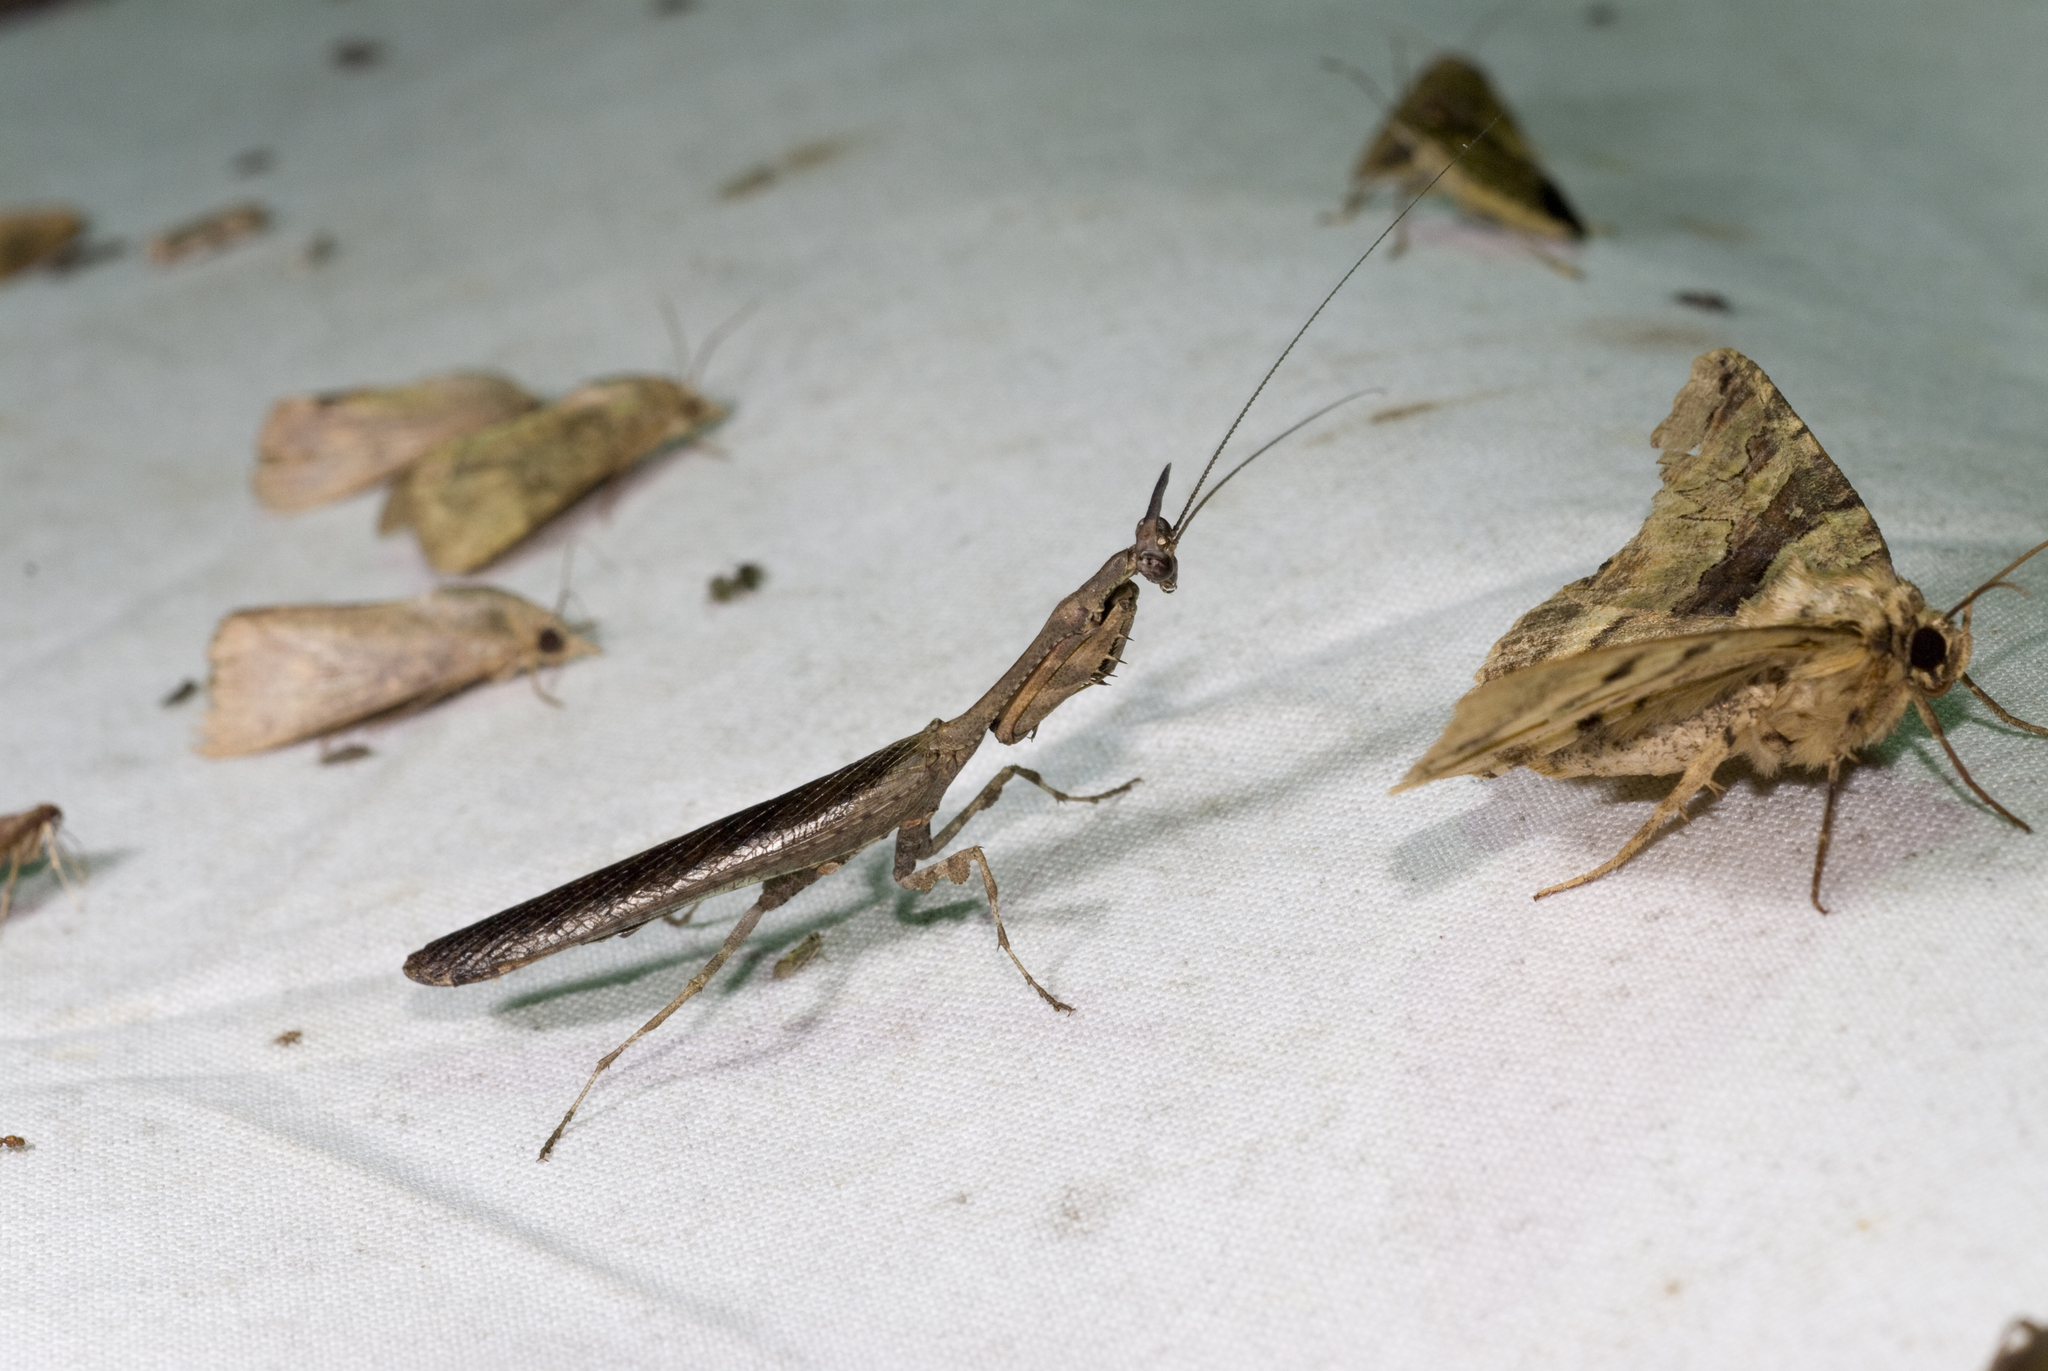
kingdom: Animalia
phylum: Arthropoda
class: Insecta
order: Mantodea
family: Hymenopodidae
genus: Phyllothelys
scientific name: Phyllothelys werneri
